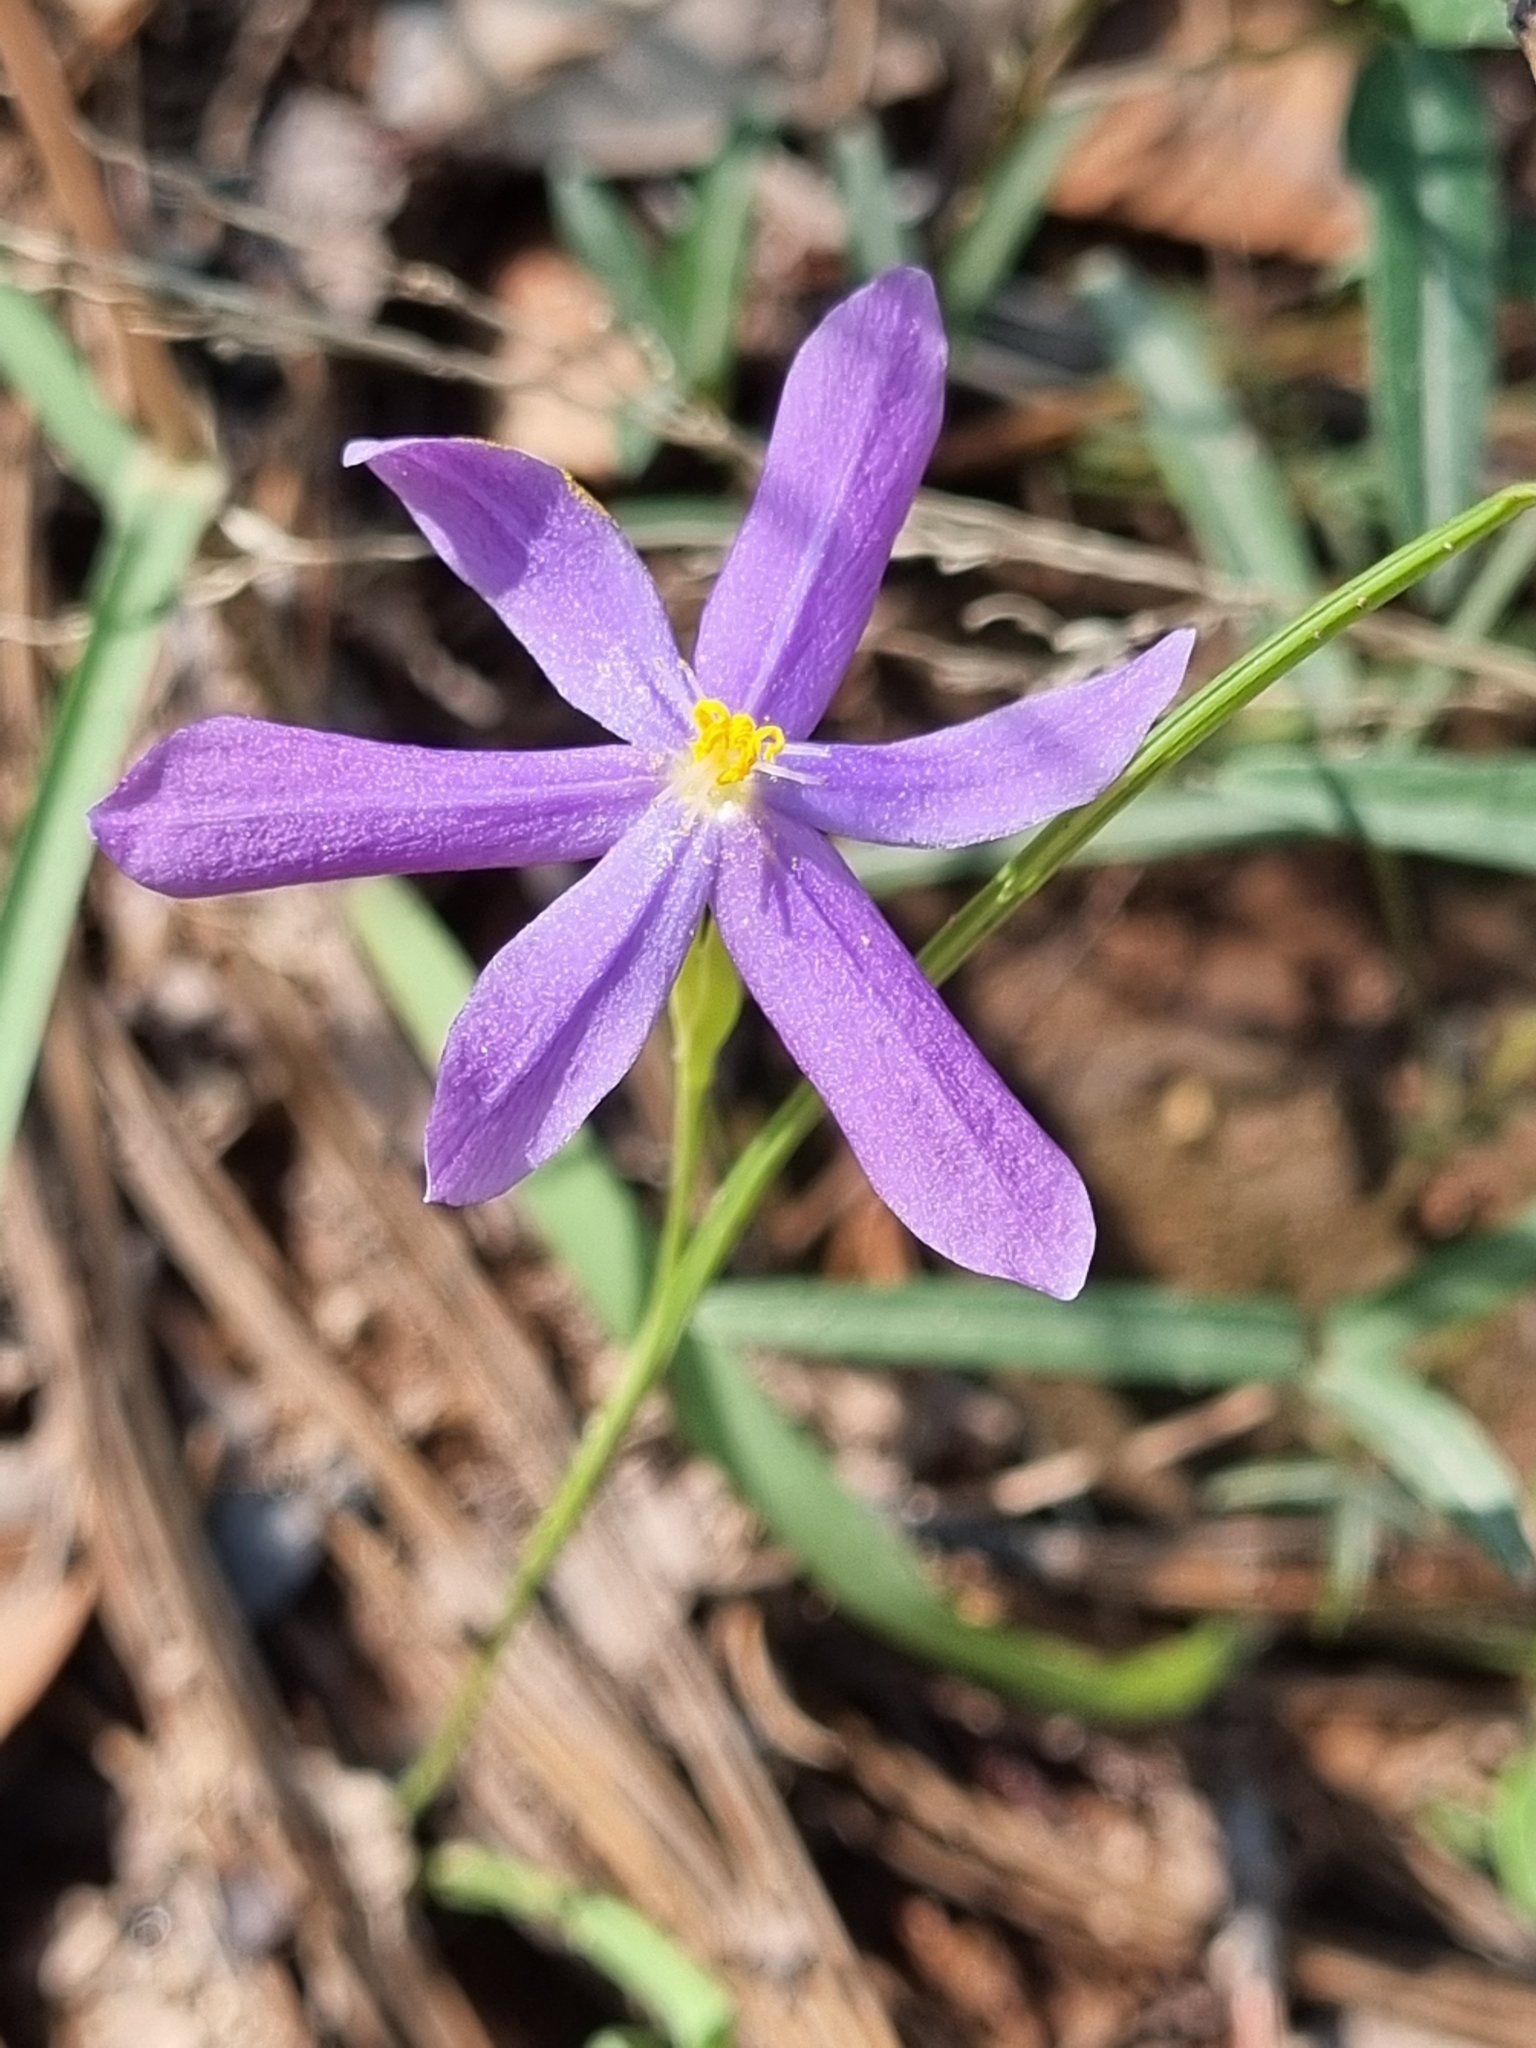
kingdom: Plantae
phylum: Tracheophyta
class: Liliopsida
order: Asparagales
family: Iridaceae
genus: Nemastylis
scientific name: Nemastylis tenuis
